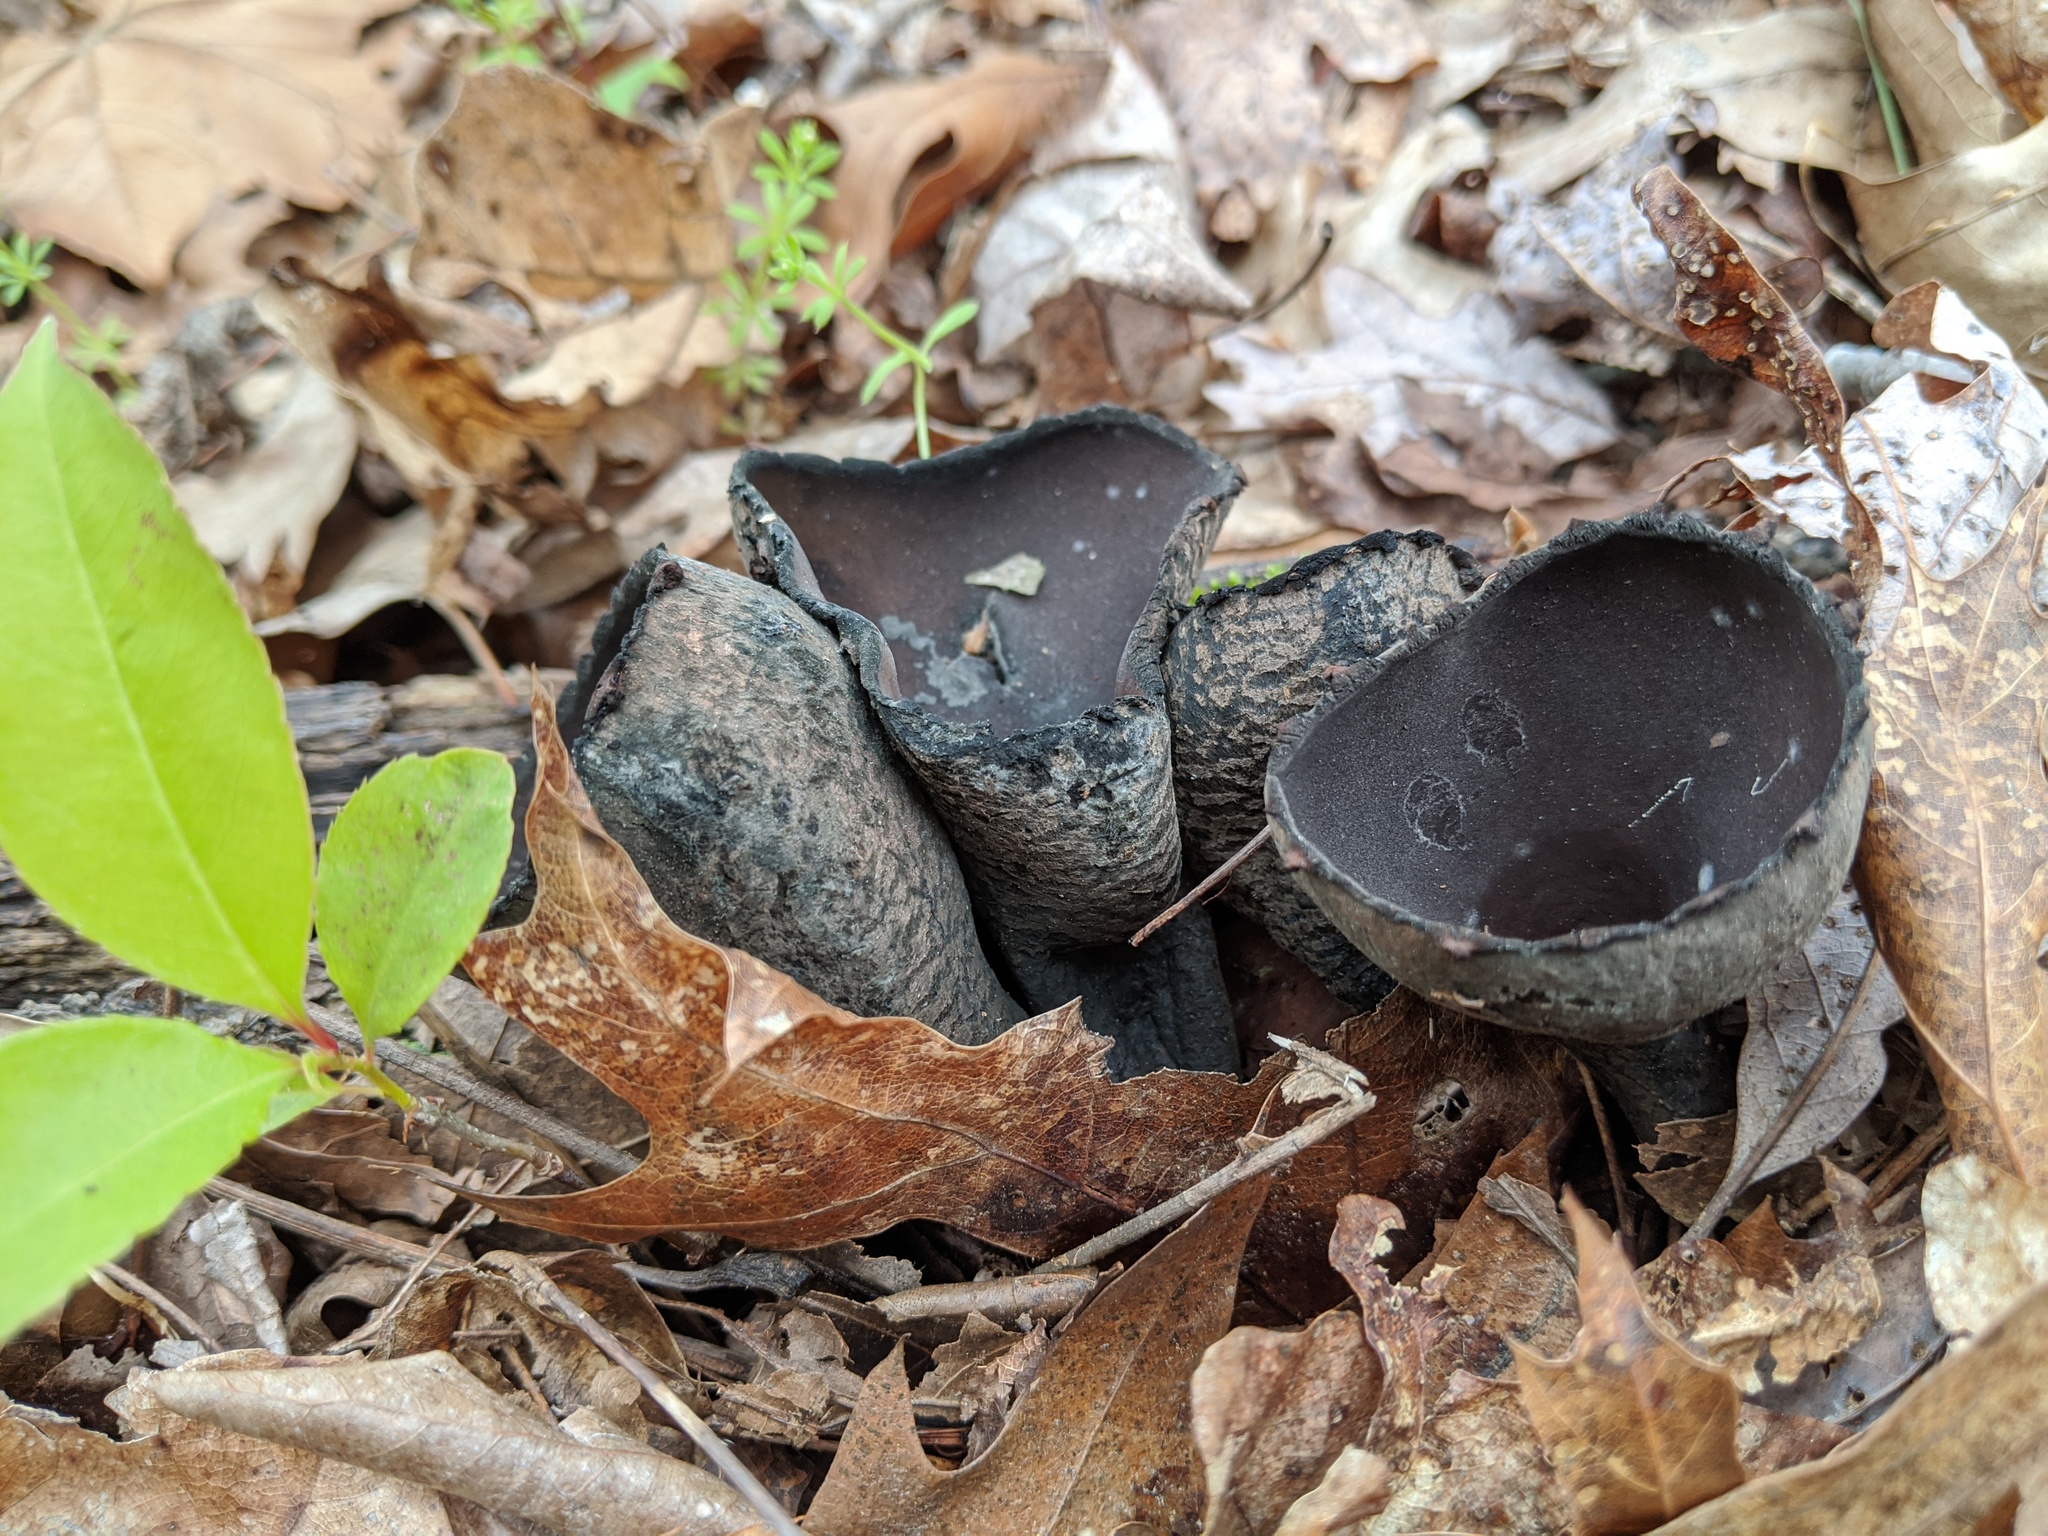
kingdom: Fungi
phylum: Ascomycota
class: Pezizomycetes
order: Pezizales
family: Sarcosomataceae
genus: Urnula
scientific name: Urnula craterium
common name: Devil's urn
